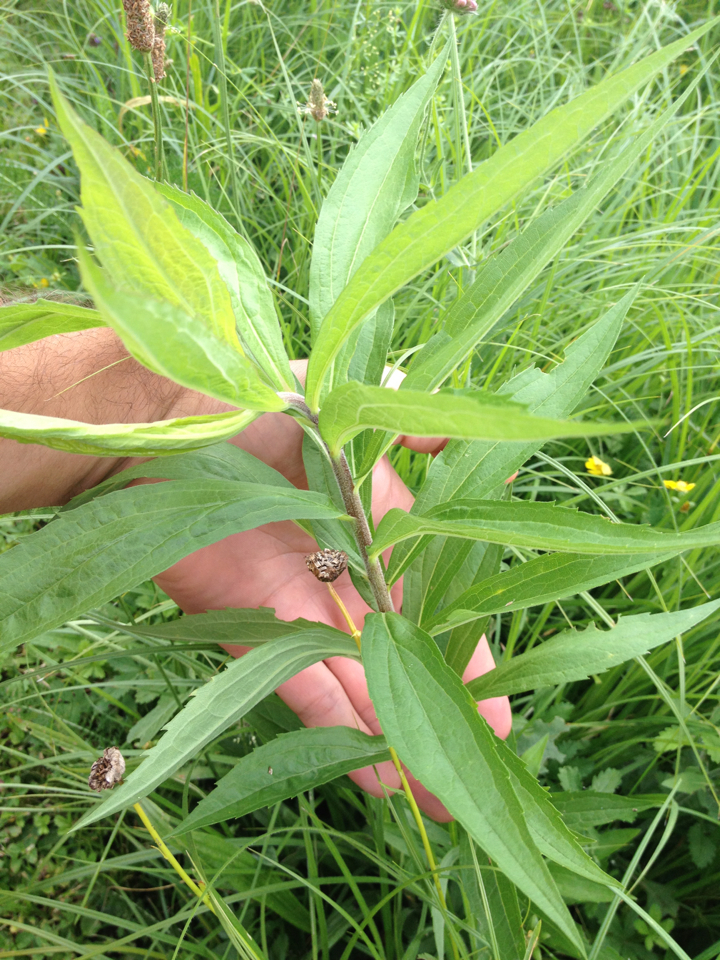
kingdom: Plantae
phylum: Tracheophyta
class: Magnoliopsida
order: Asterales
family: Asteraceae
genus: Solidago
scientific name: Solidago canadensis
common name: Canada goldenrod
